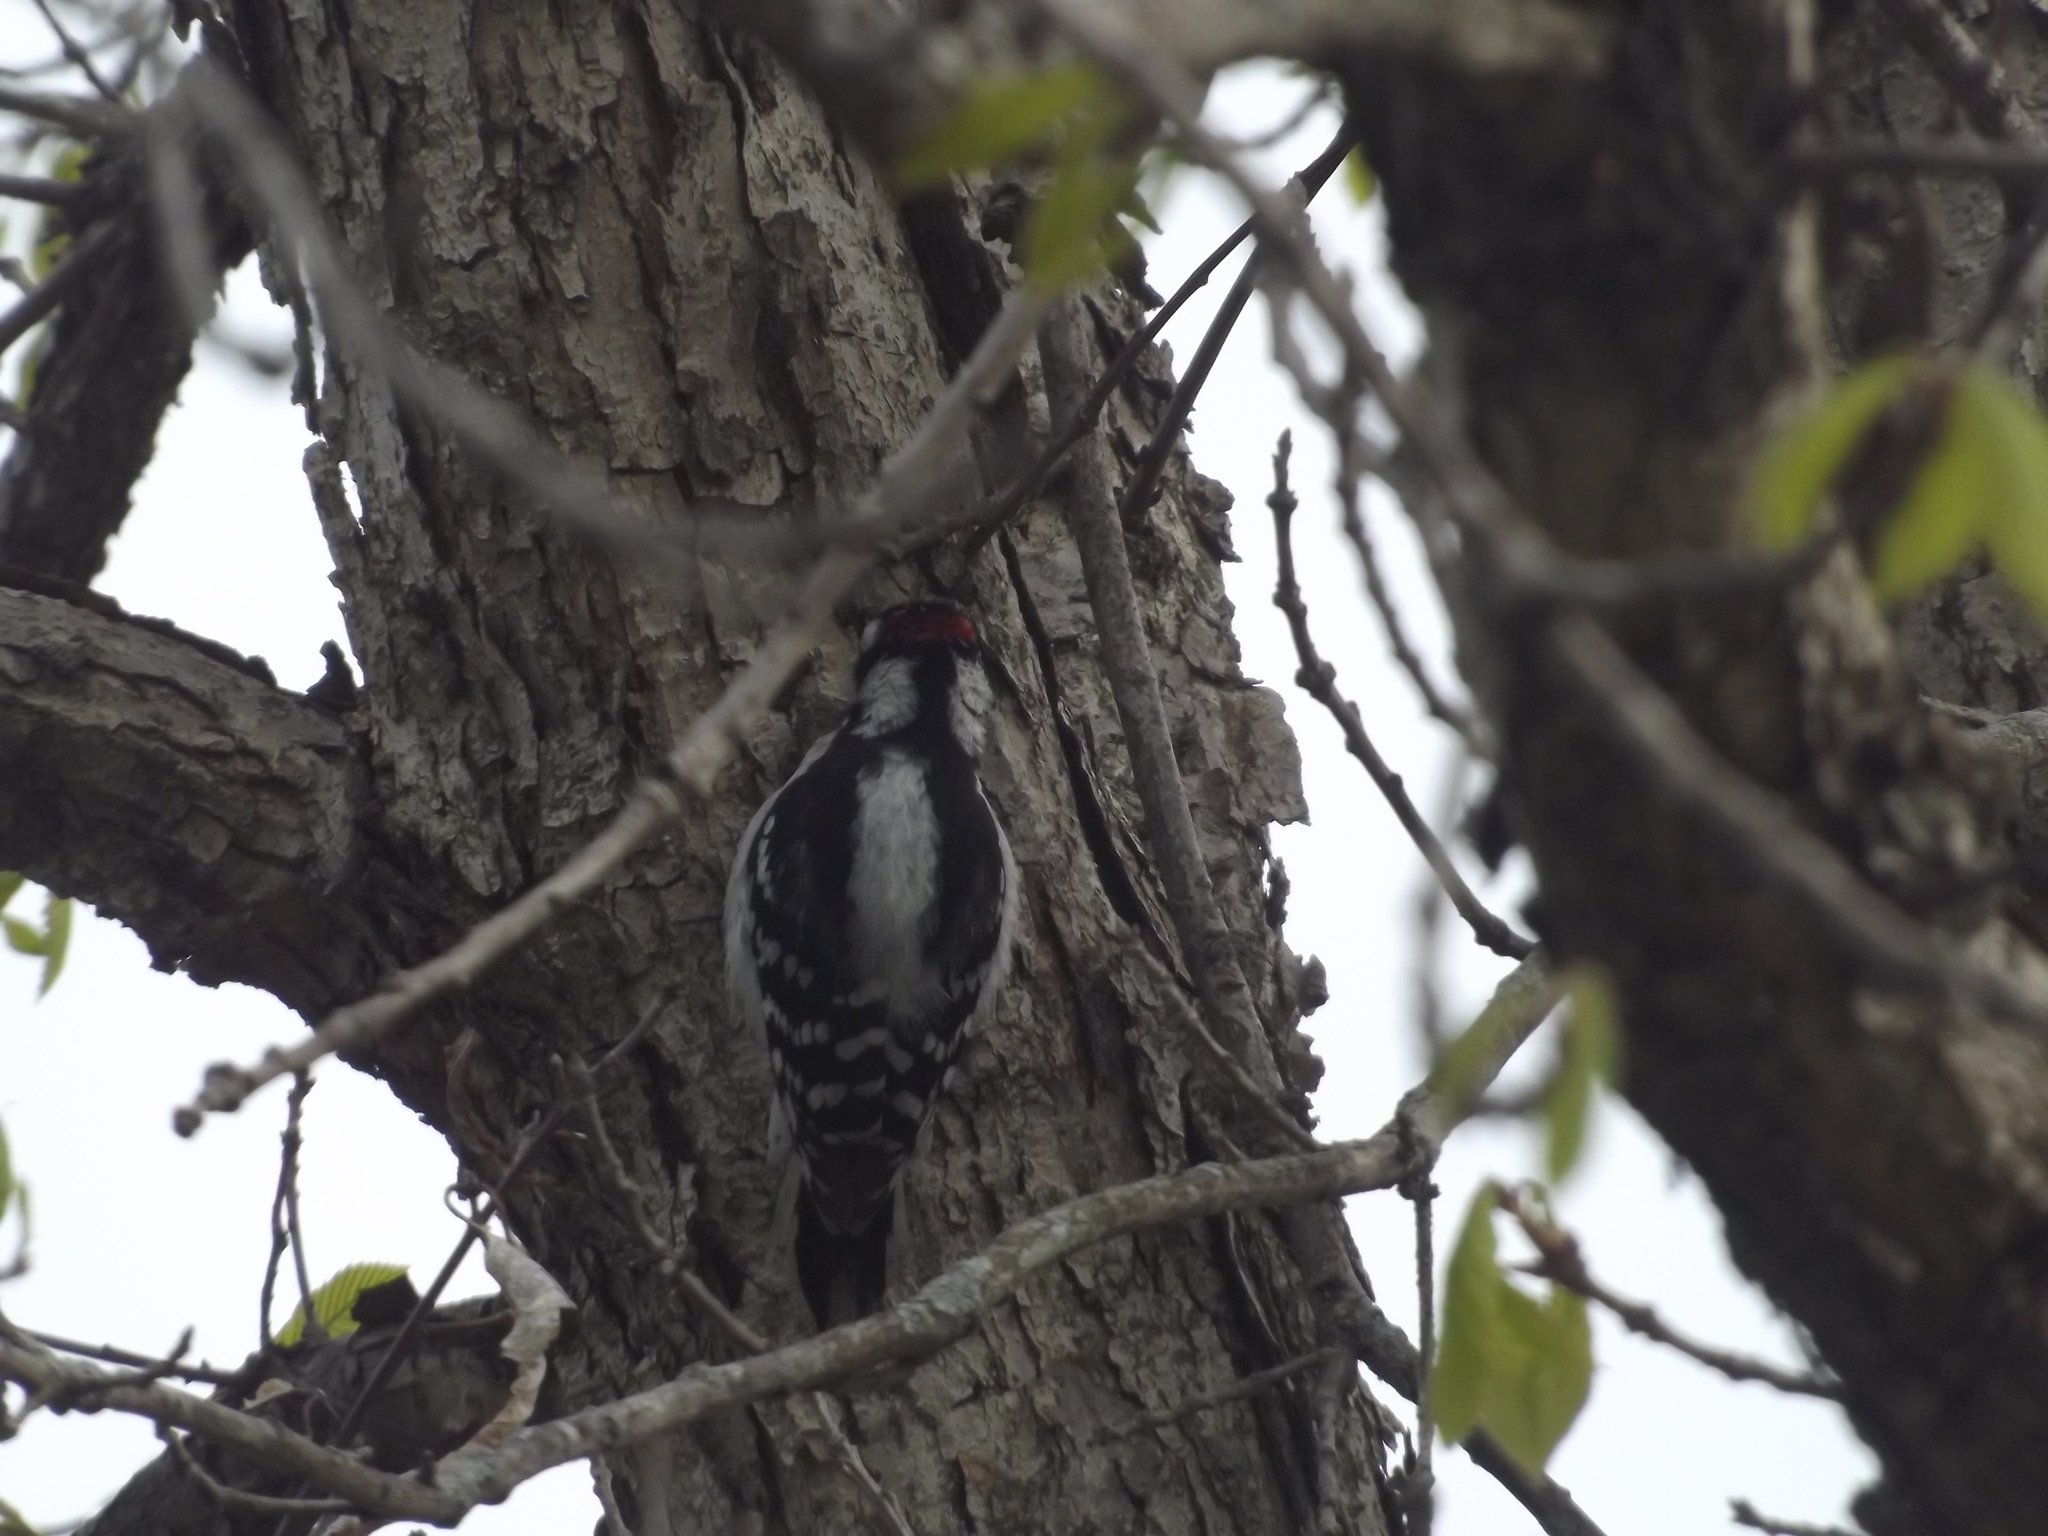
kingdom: Animalia
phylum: Chordata
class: Aves
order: Piciformes
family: Picidae
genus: Dryobates
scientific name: Dryobates pubescens
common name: Downy woodpecker
